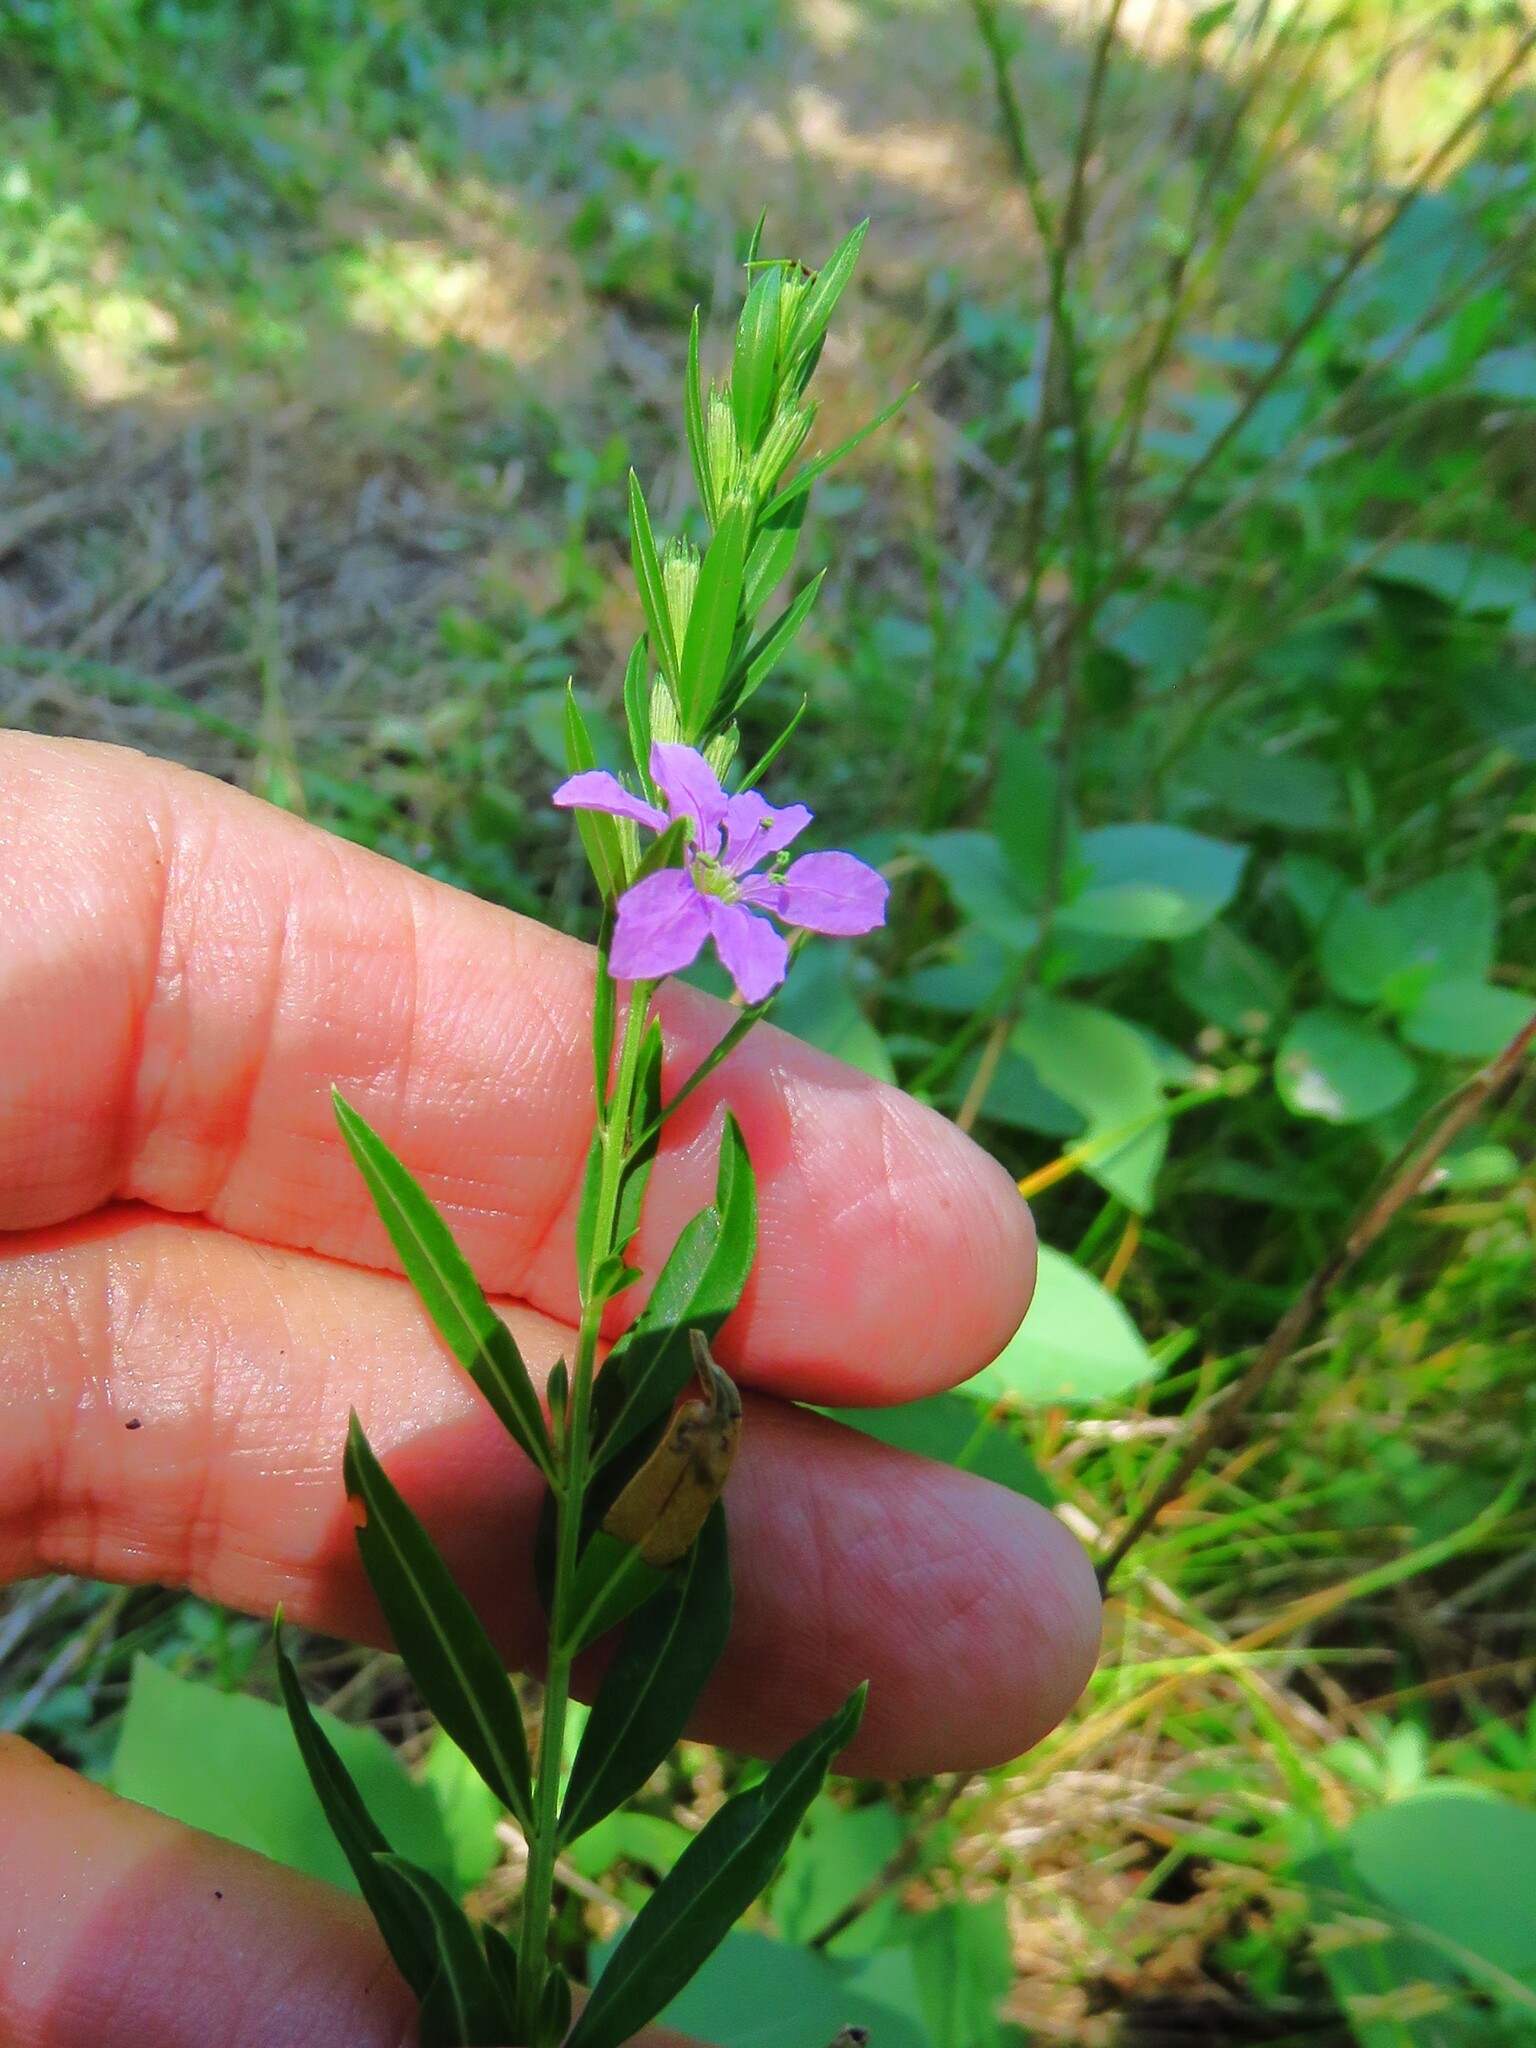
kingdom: Plantae
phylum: Tracheophyta
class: Magnoliopsida
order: Myrtales
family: Lythraceae
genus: Lythrum
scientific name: Lythrum alatum
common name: Winged loosestrife
